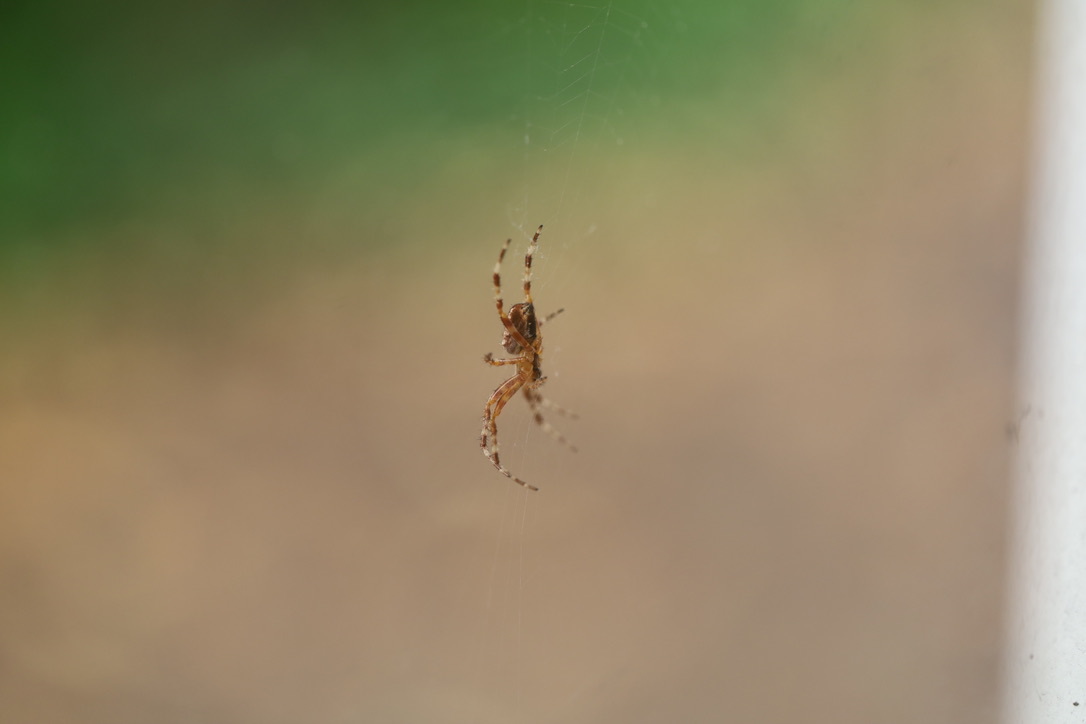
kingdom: Animalia
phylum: Arthropoda
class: Arachnida
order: Araneae
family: Araneidae
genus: Araneus
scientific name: Araneus diadematus
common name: Cross orbweaver
